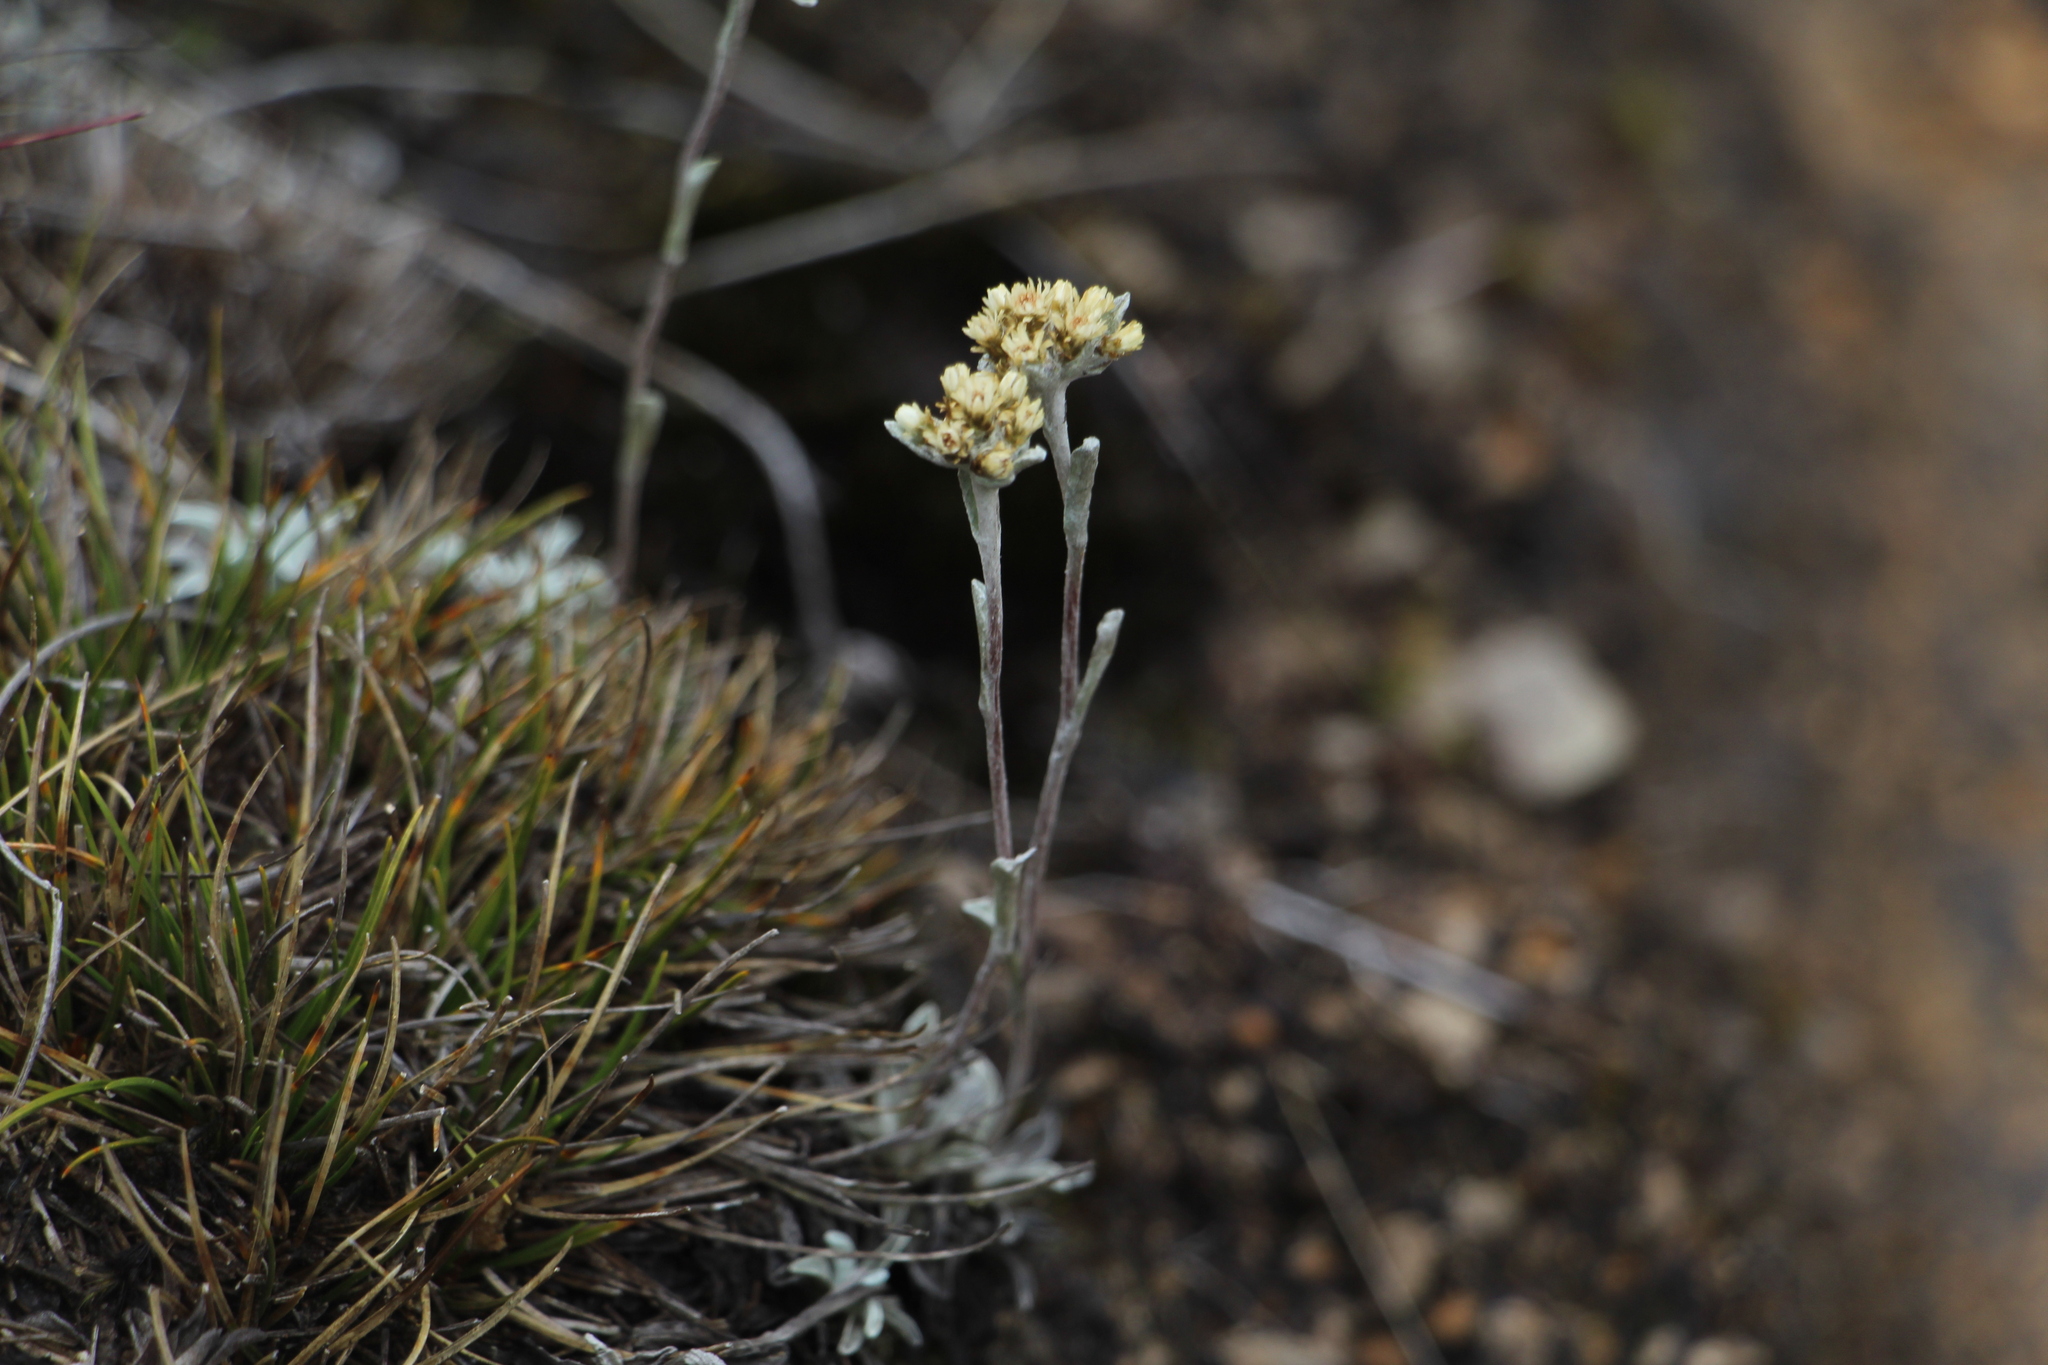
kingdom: Plantae
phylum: Tracheophyta
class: Magnoliopsida
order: Asterales
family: Asteraceae
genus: Pseudognaphalium
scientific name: Pseudognaphalium paramorum
